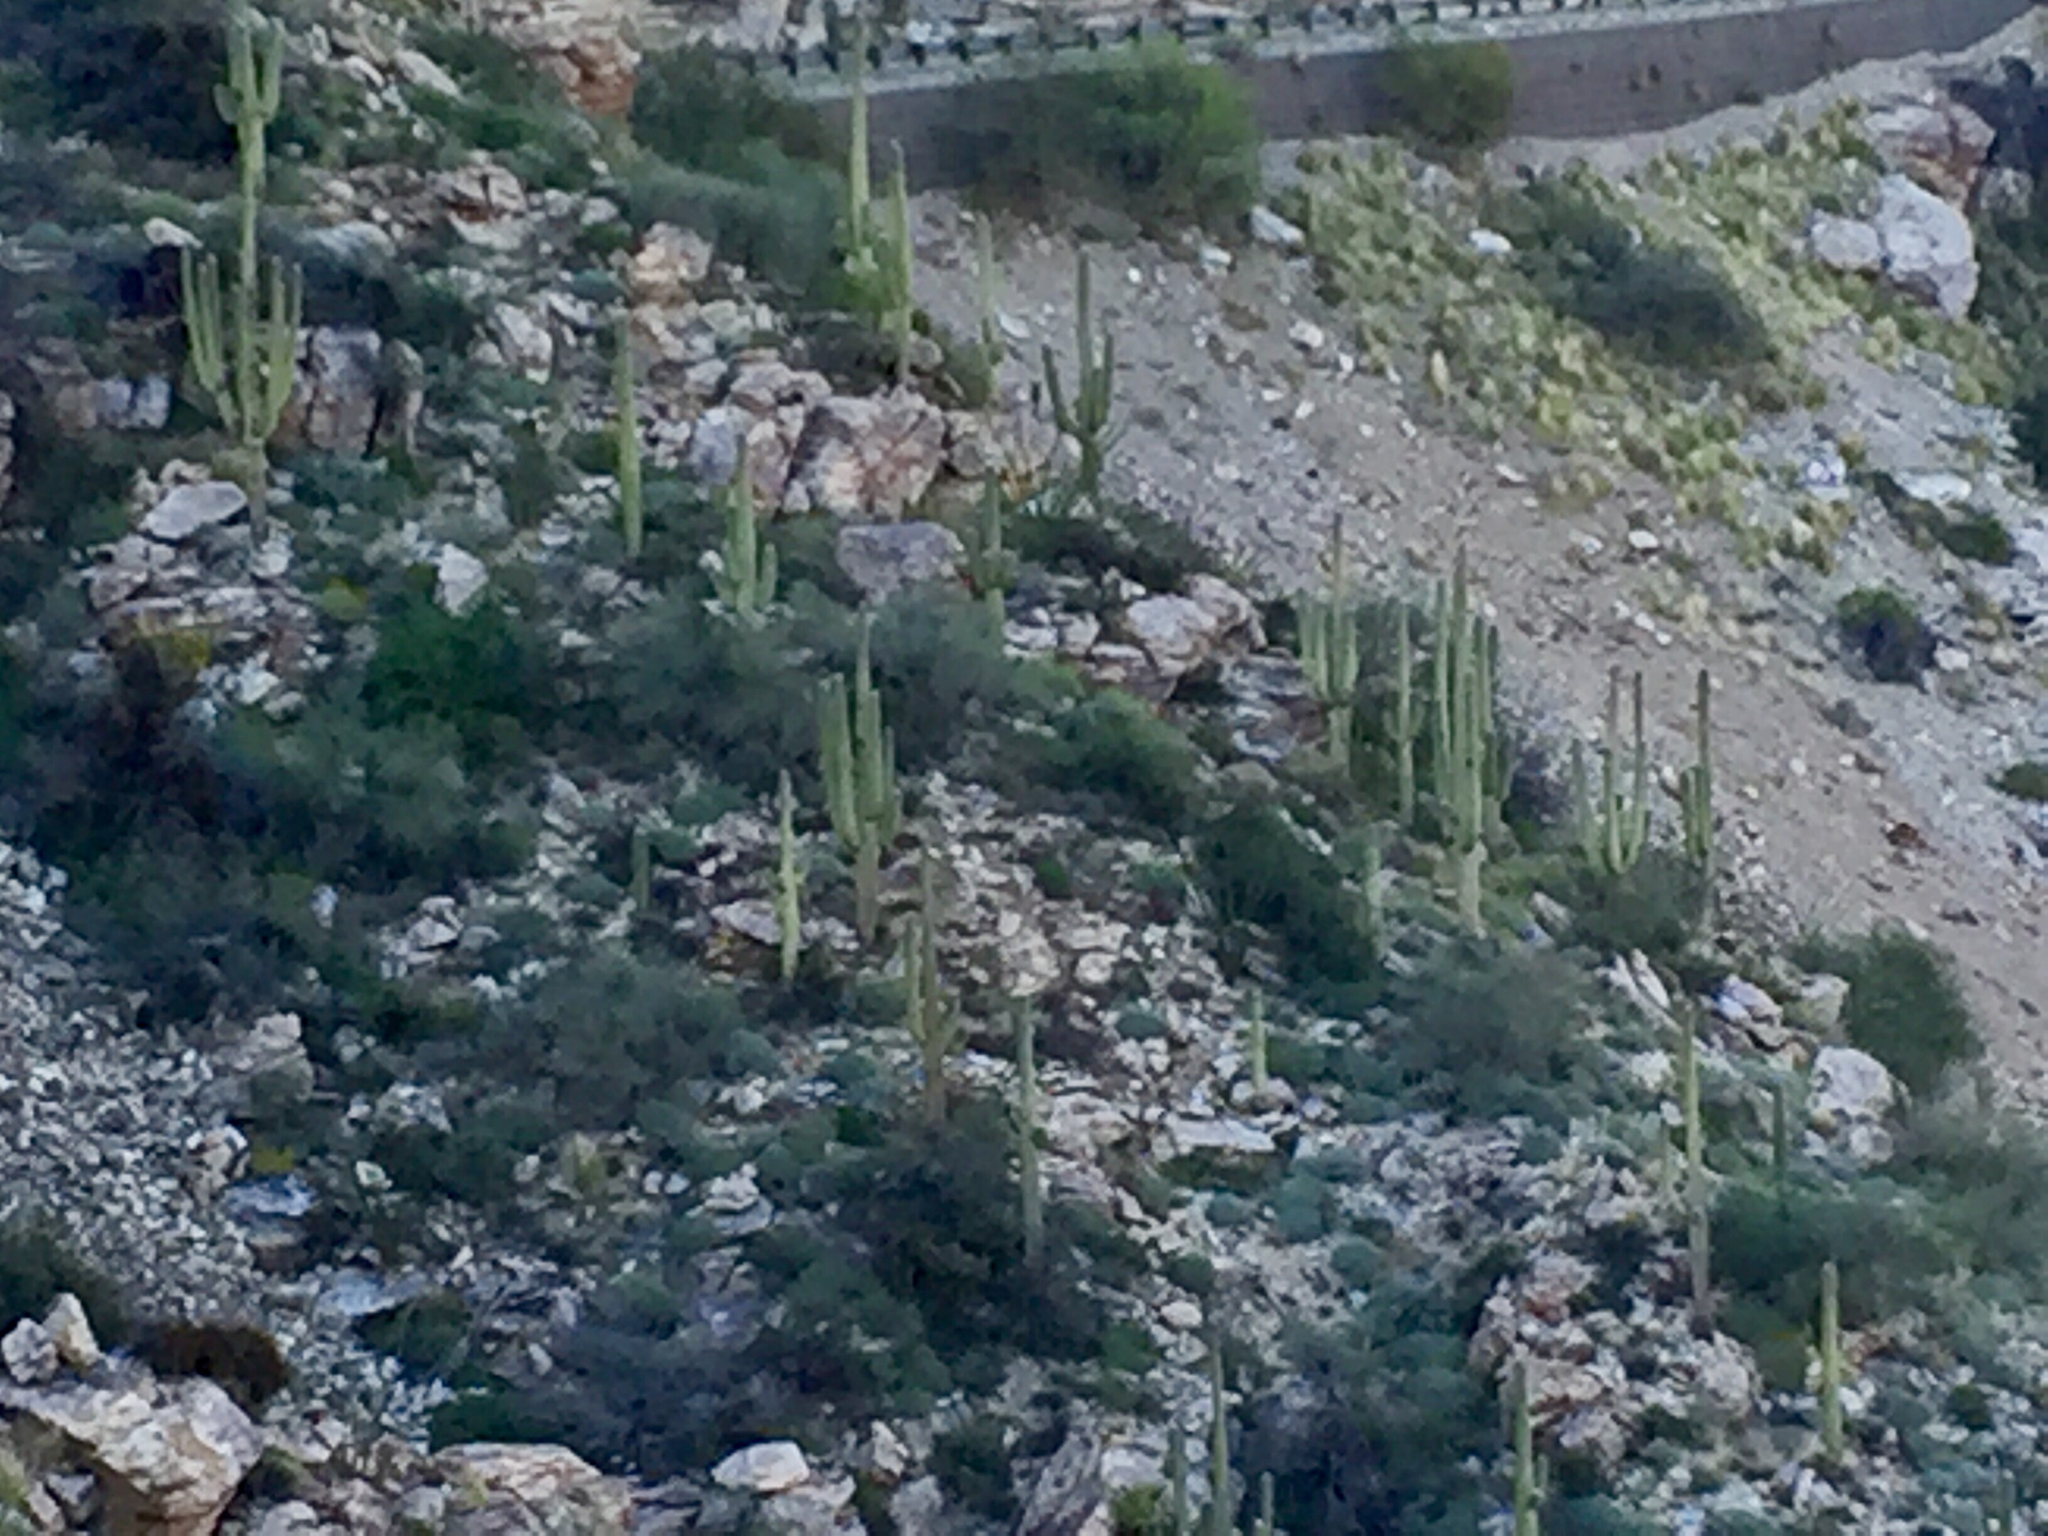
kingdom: Plantae
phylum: Tracheophyta
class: Magnoliopsida
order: Caryophyllales
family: Cactaceae
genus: Carnegiea
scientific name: Carnegiea gigantea
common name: Saguaro
